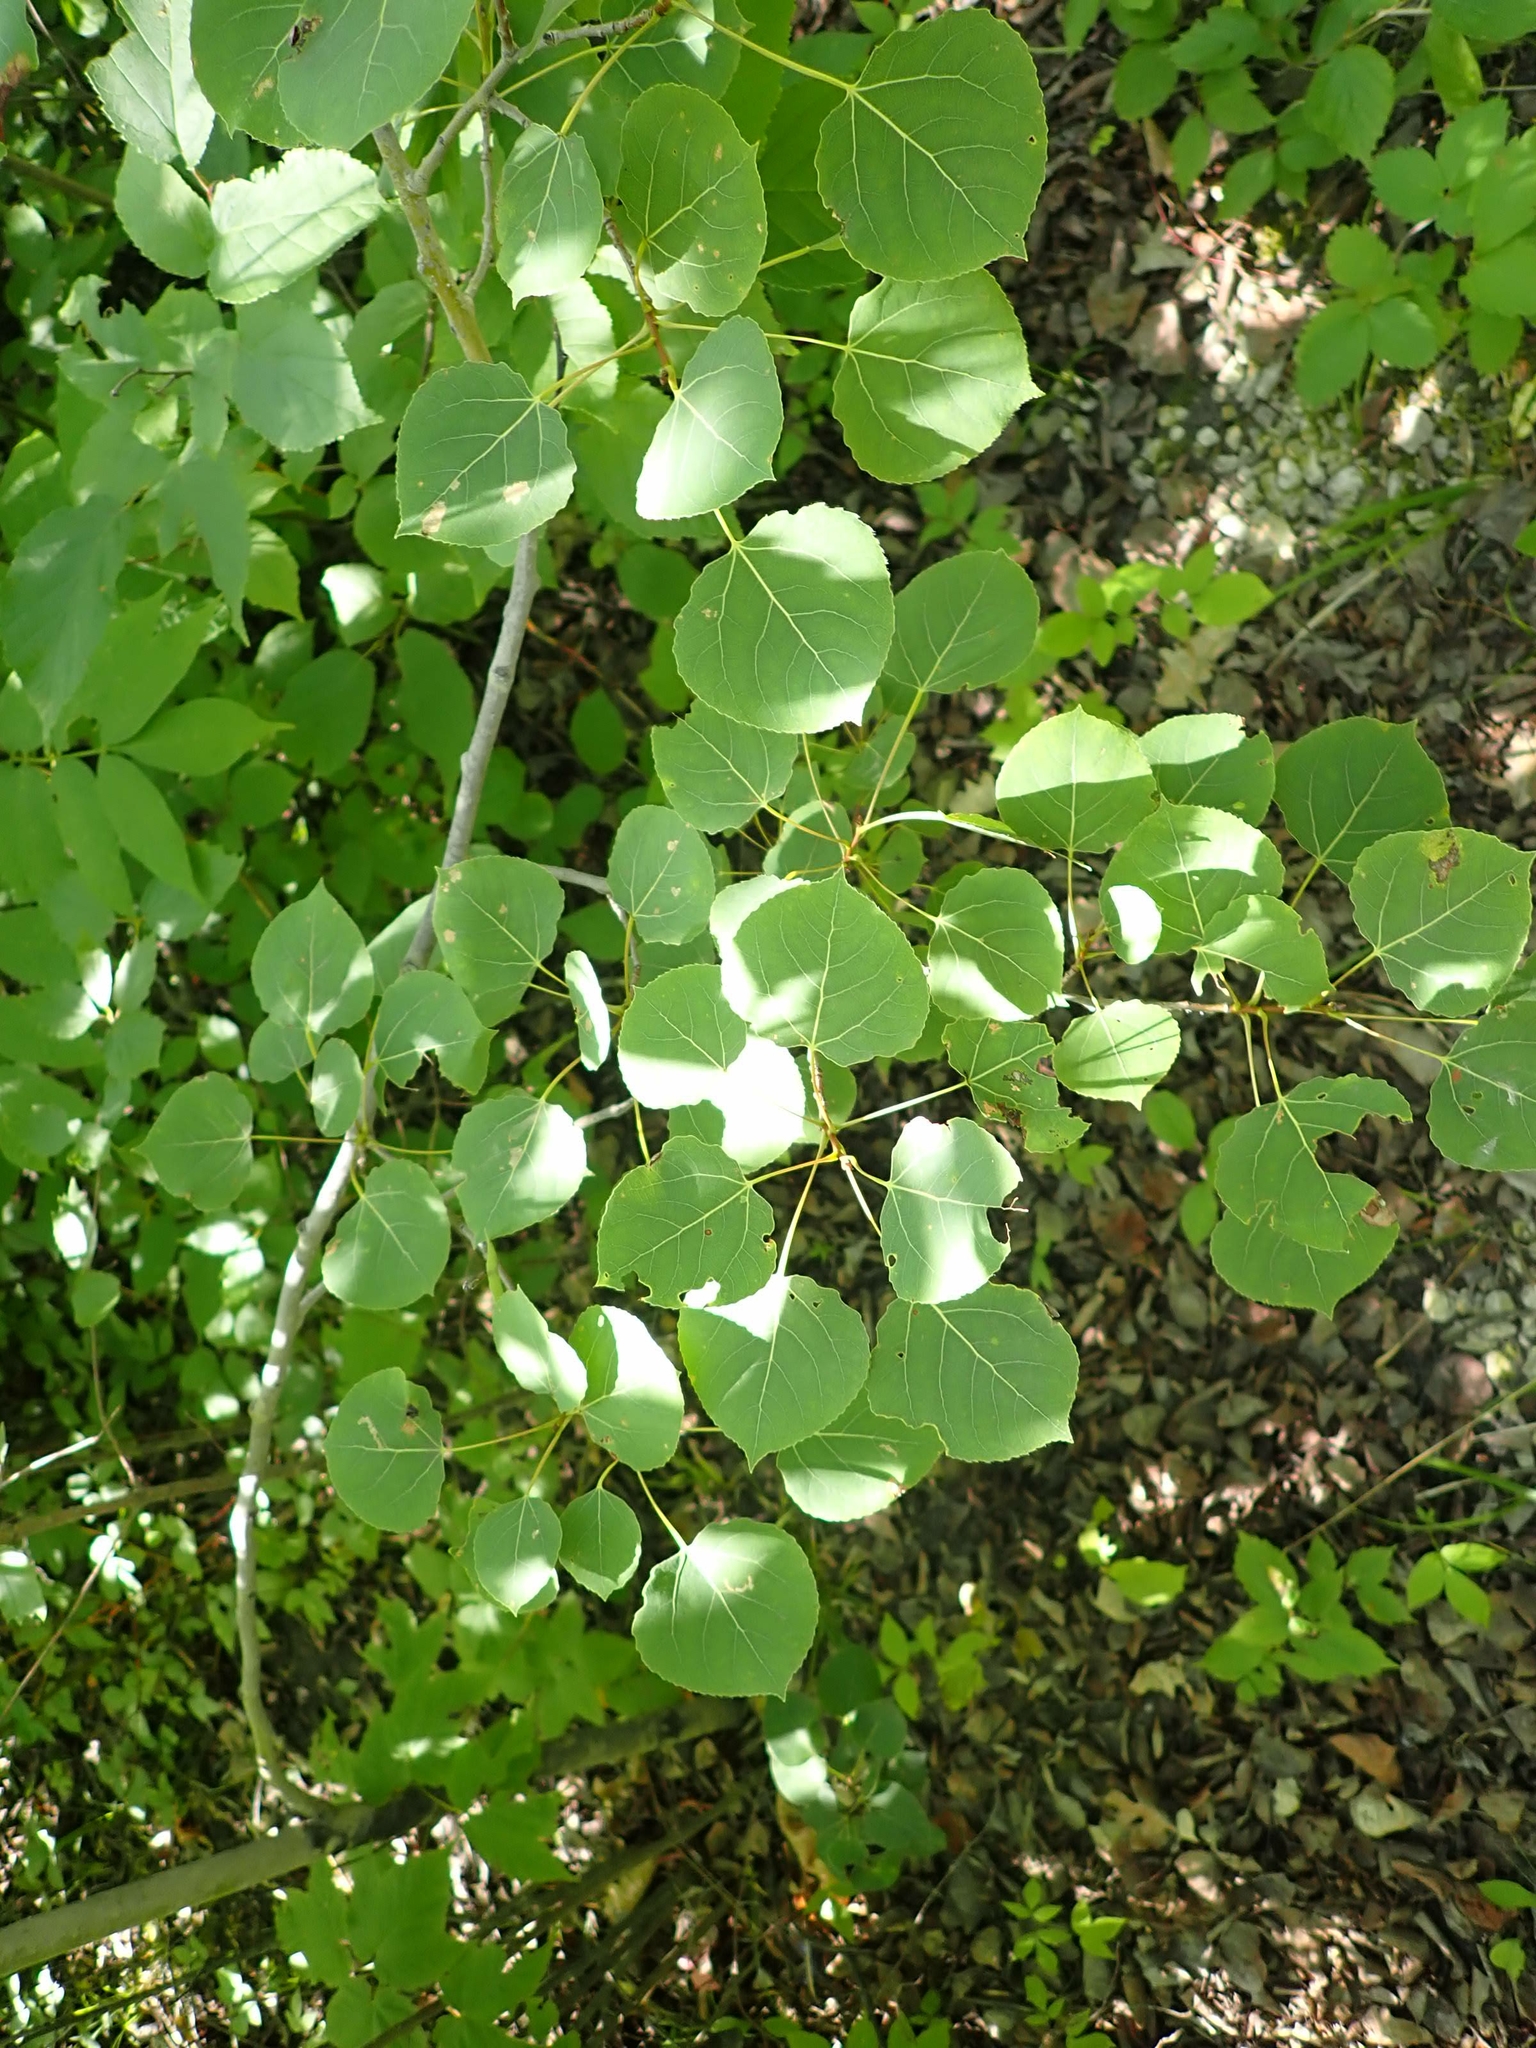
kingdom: Plantae
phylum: Tracheophyta
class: Magnoliopsida
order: Malpighiales
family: Salicaceae
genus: Populus
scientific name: Populus tremuloides
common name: Quaking aspen
